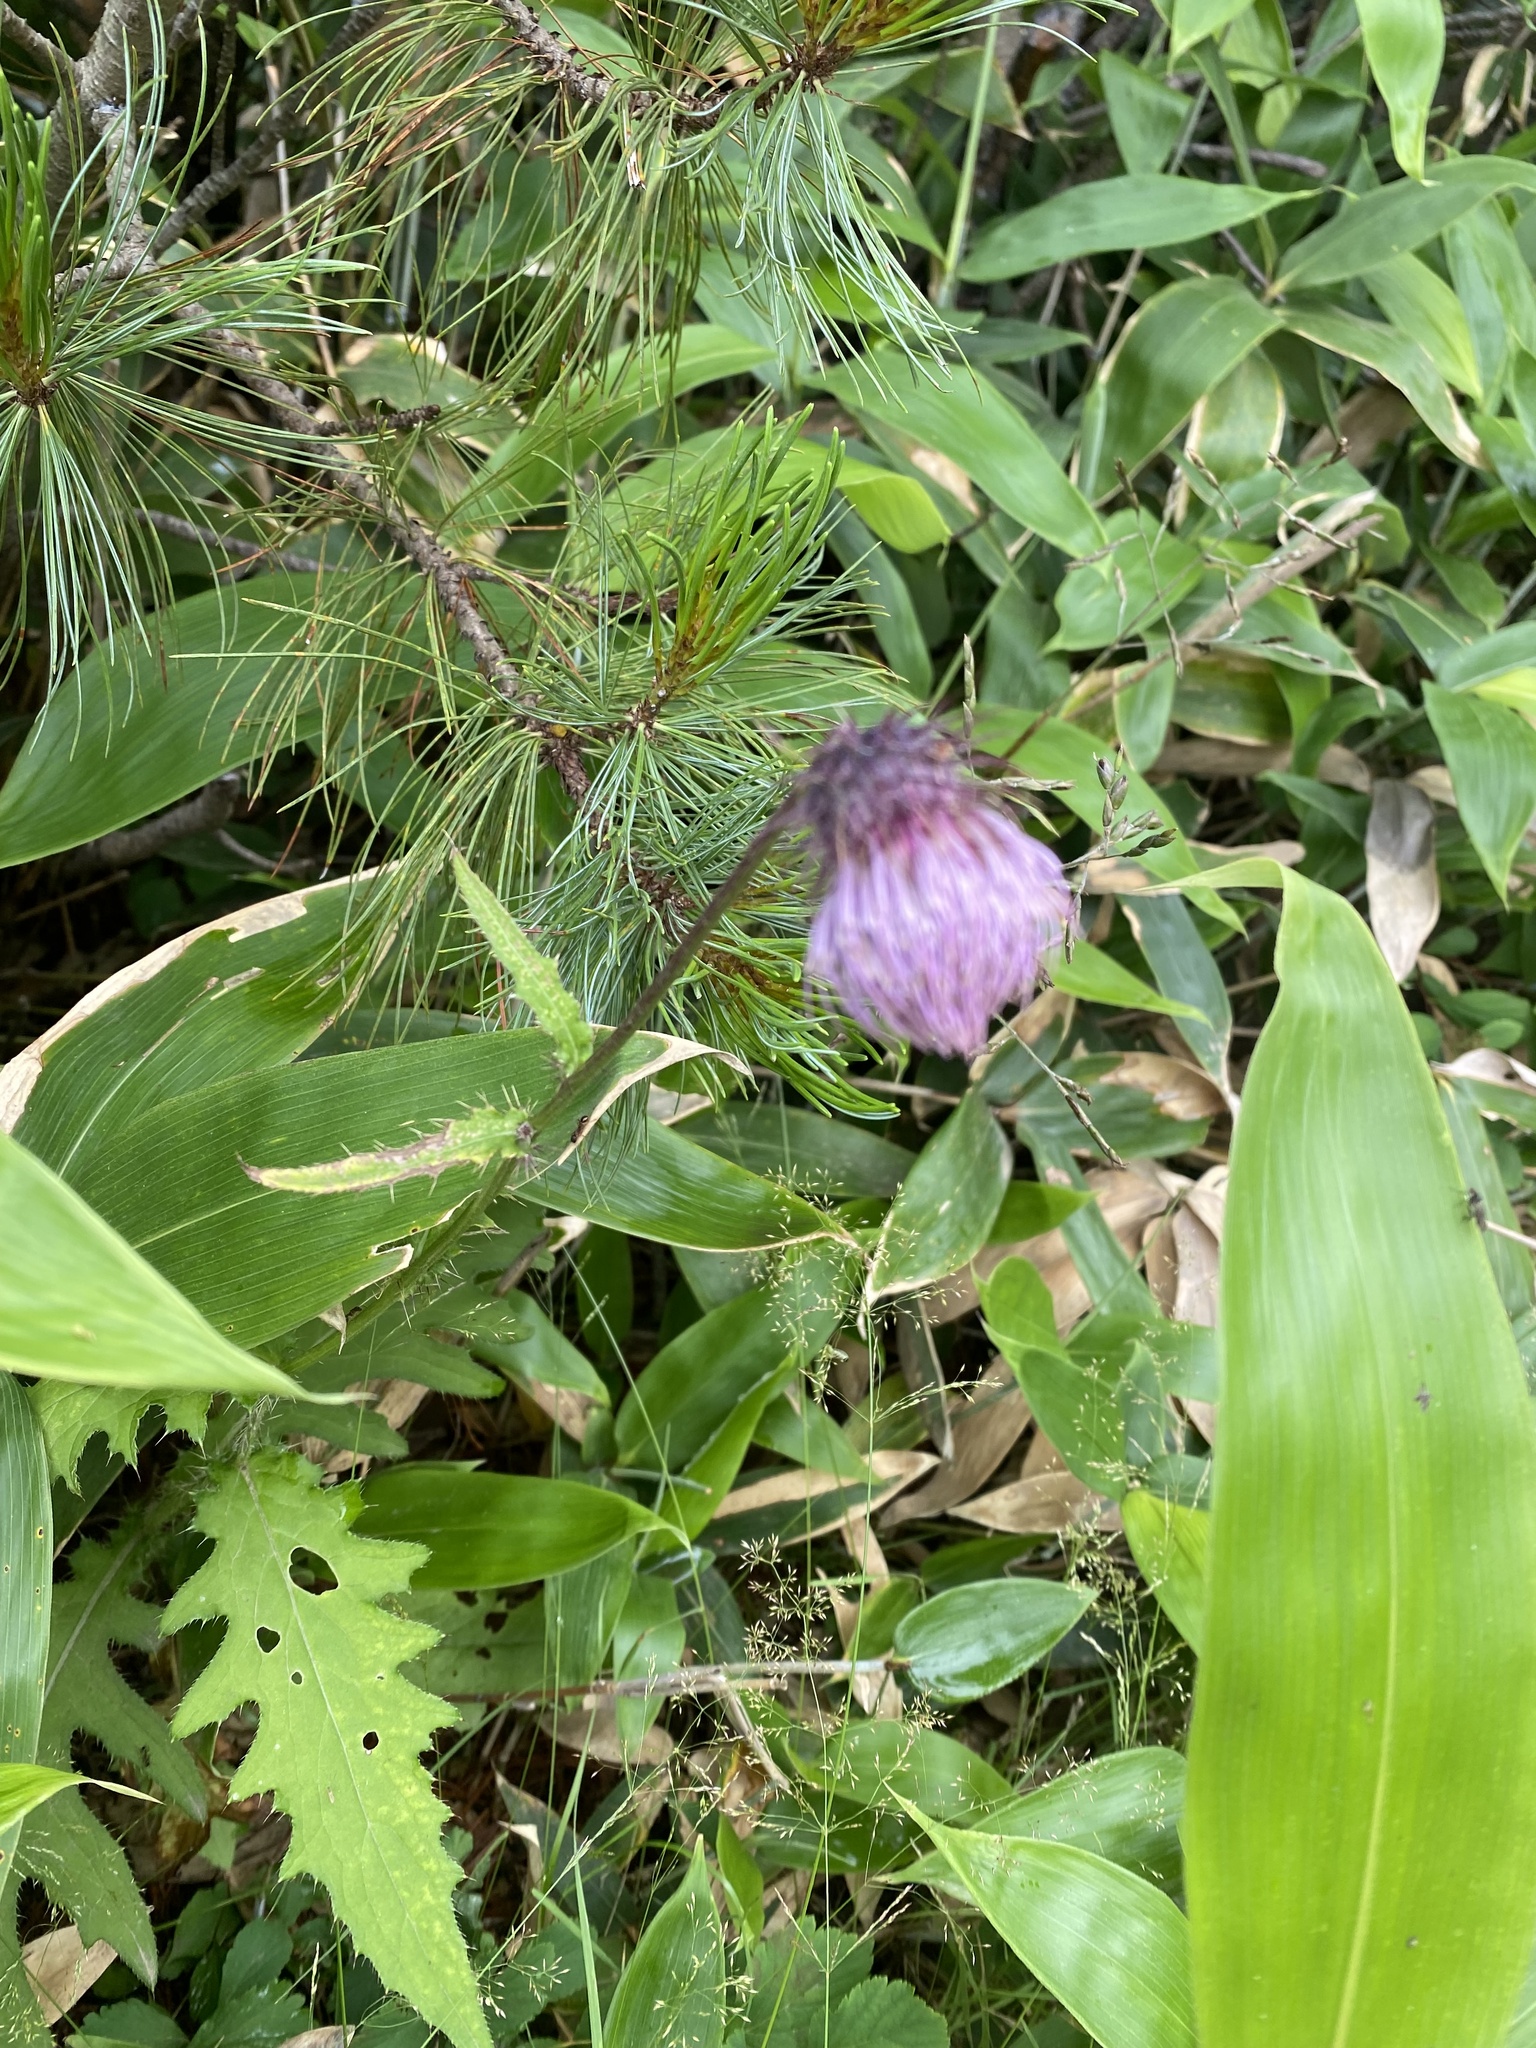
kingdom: Plantae
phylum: Tracheophyta
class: Magnoliopsida
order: Asterales
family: Asteraceae
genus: Cirsium
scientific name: Cirsium kamtschaticum
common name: Kamchatka thistle
